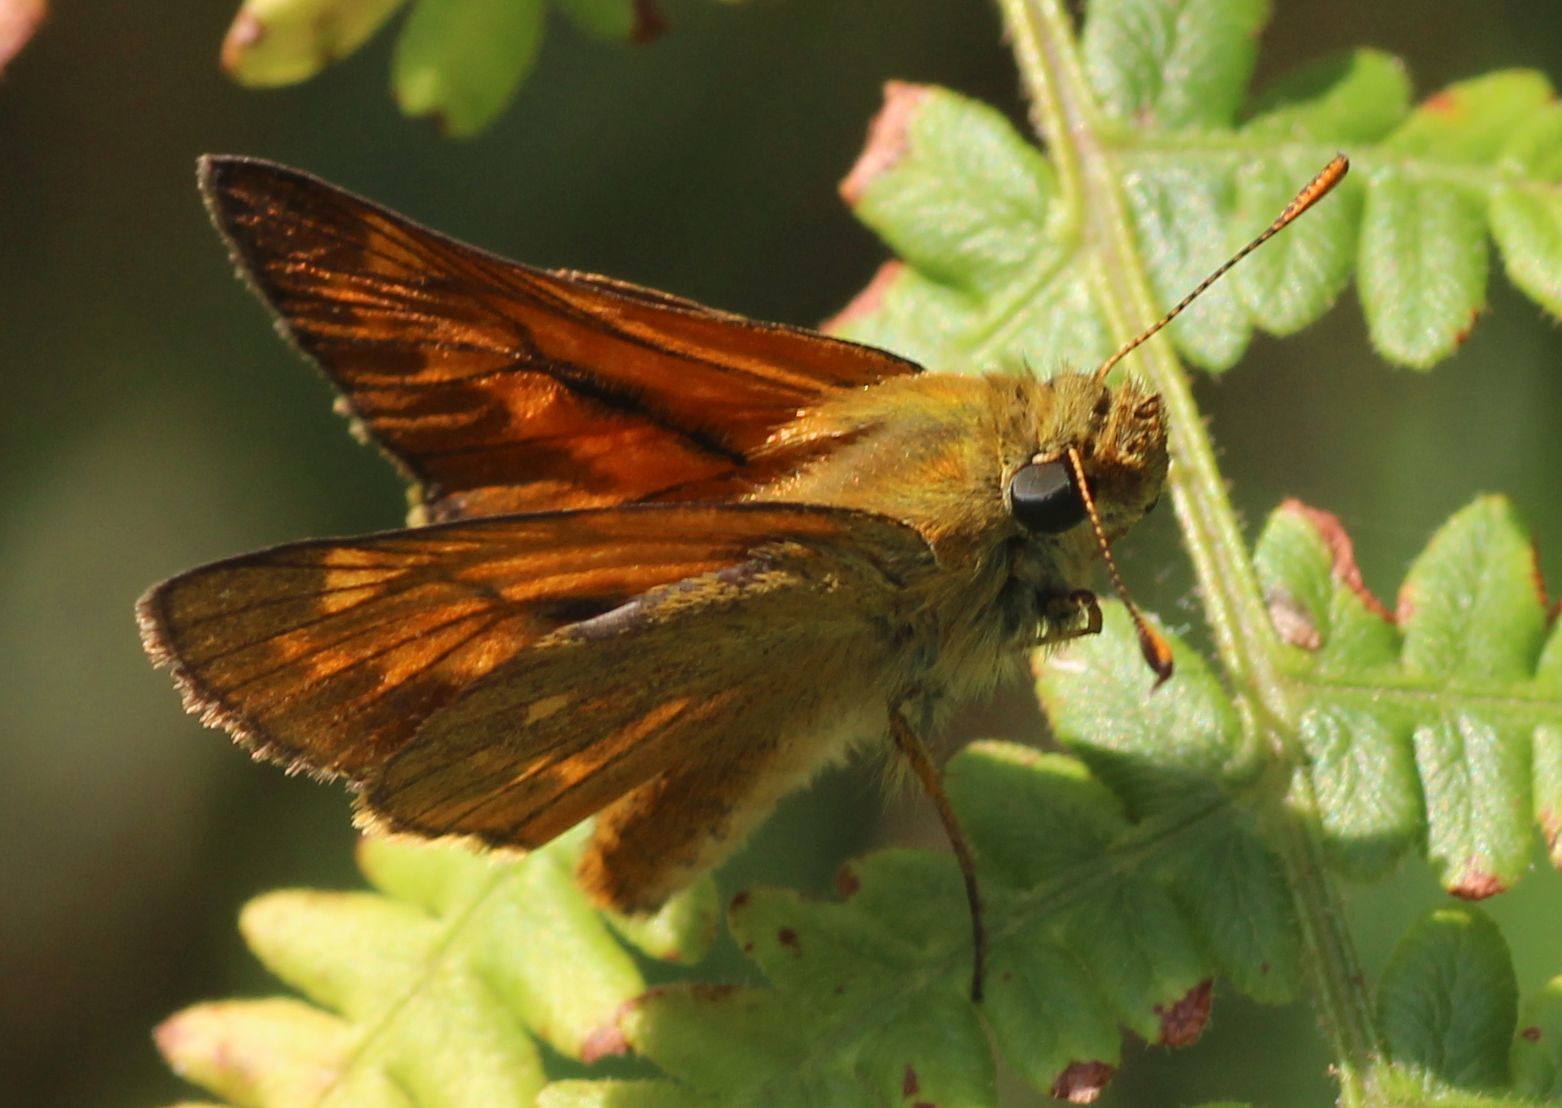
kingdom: Animalia
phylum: Arthropoda
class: Insecta
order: Lepidoptera
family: Hesperiidae
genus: Ochlodes
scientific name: Ochlodes venata
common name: Large skipper
